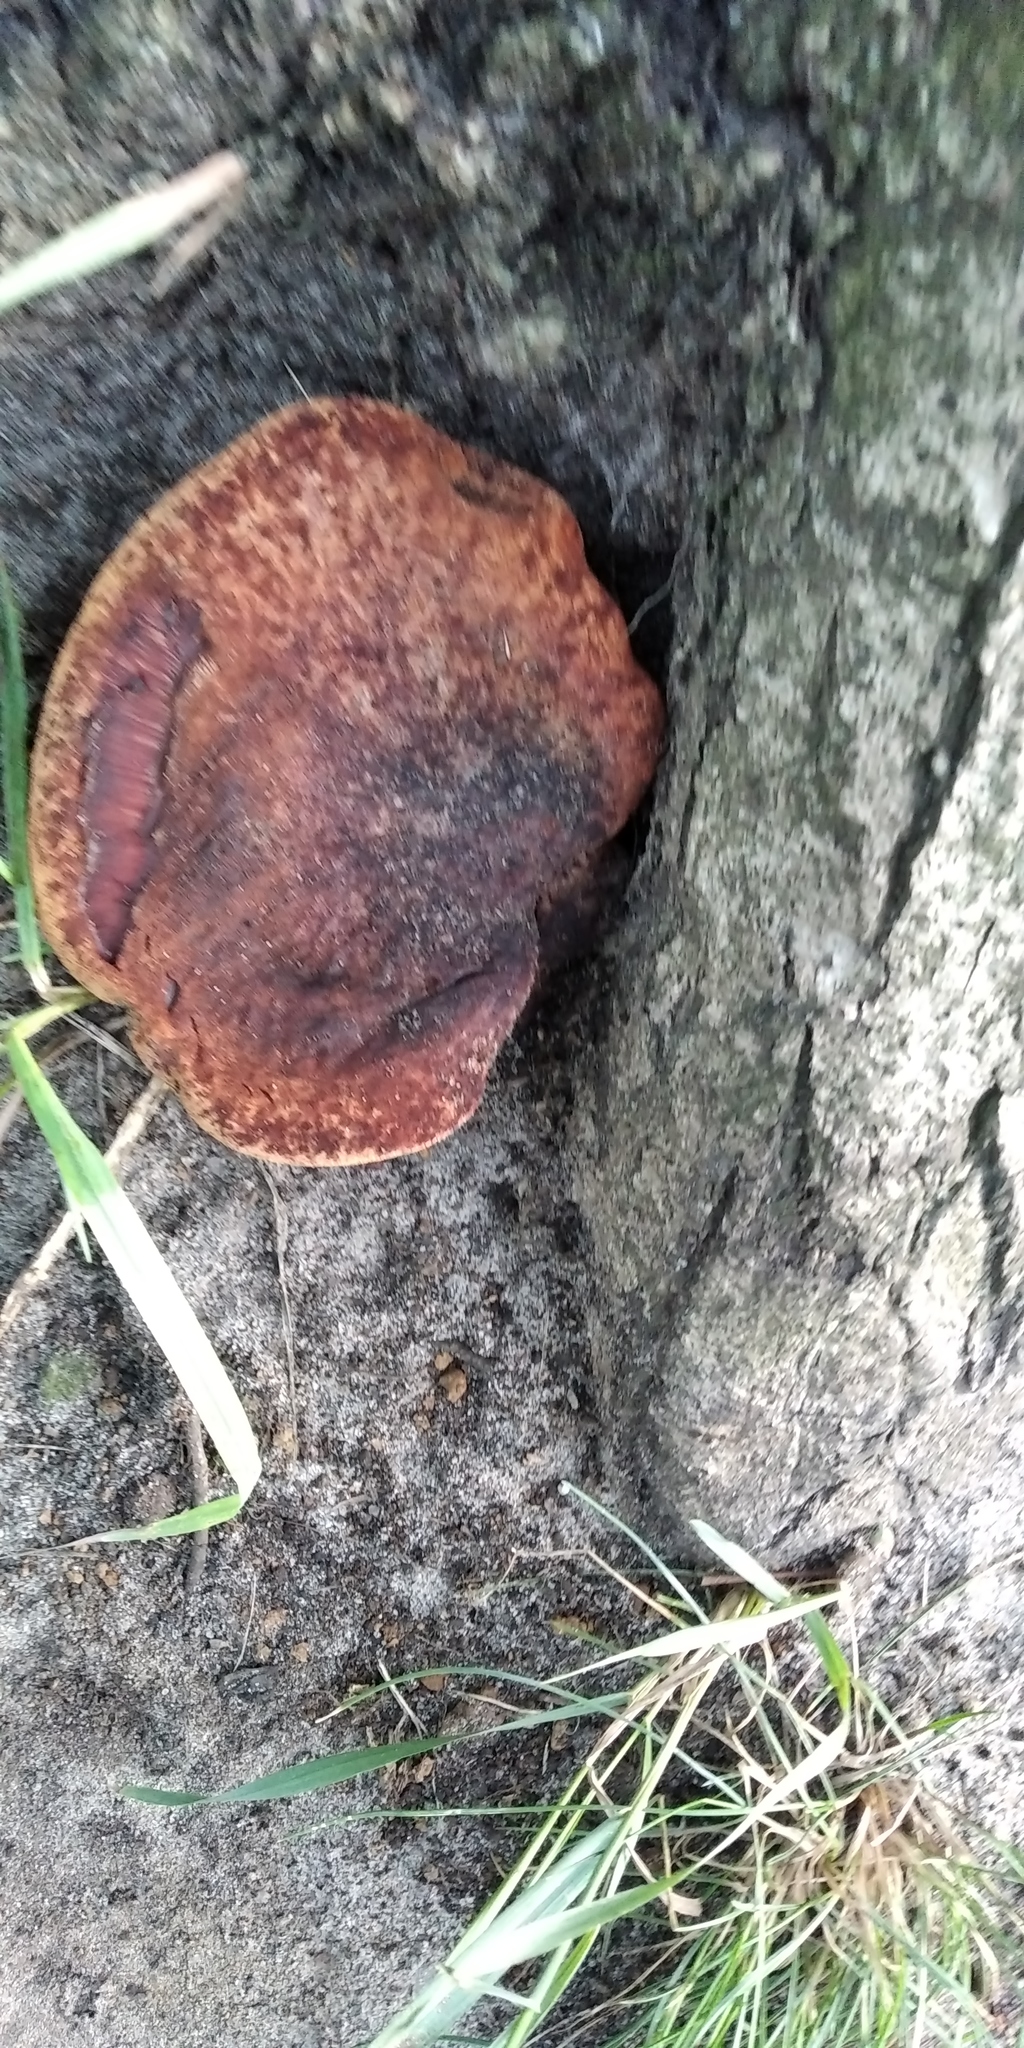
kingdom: Fungi
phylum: Basidiomycota
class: Agaricomycetes
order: Agaricales
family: Fistulinaceae
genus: Fistulina
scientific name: Fistulina hepatica
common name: Beef-steak fungus
